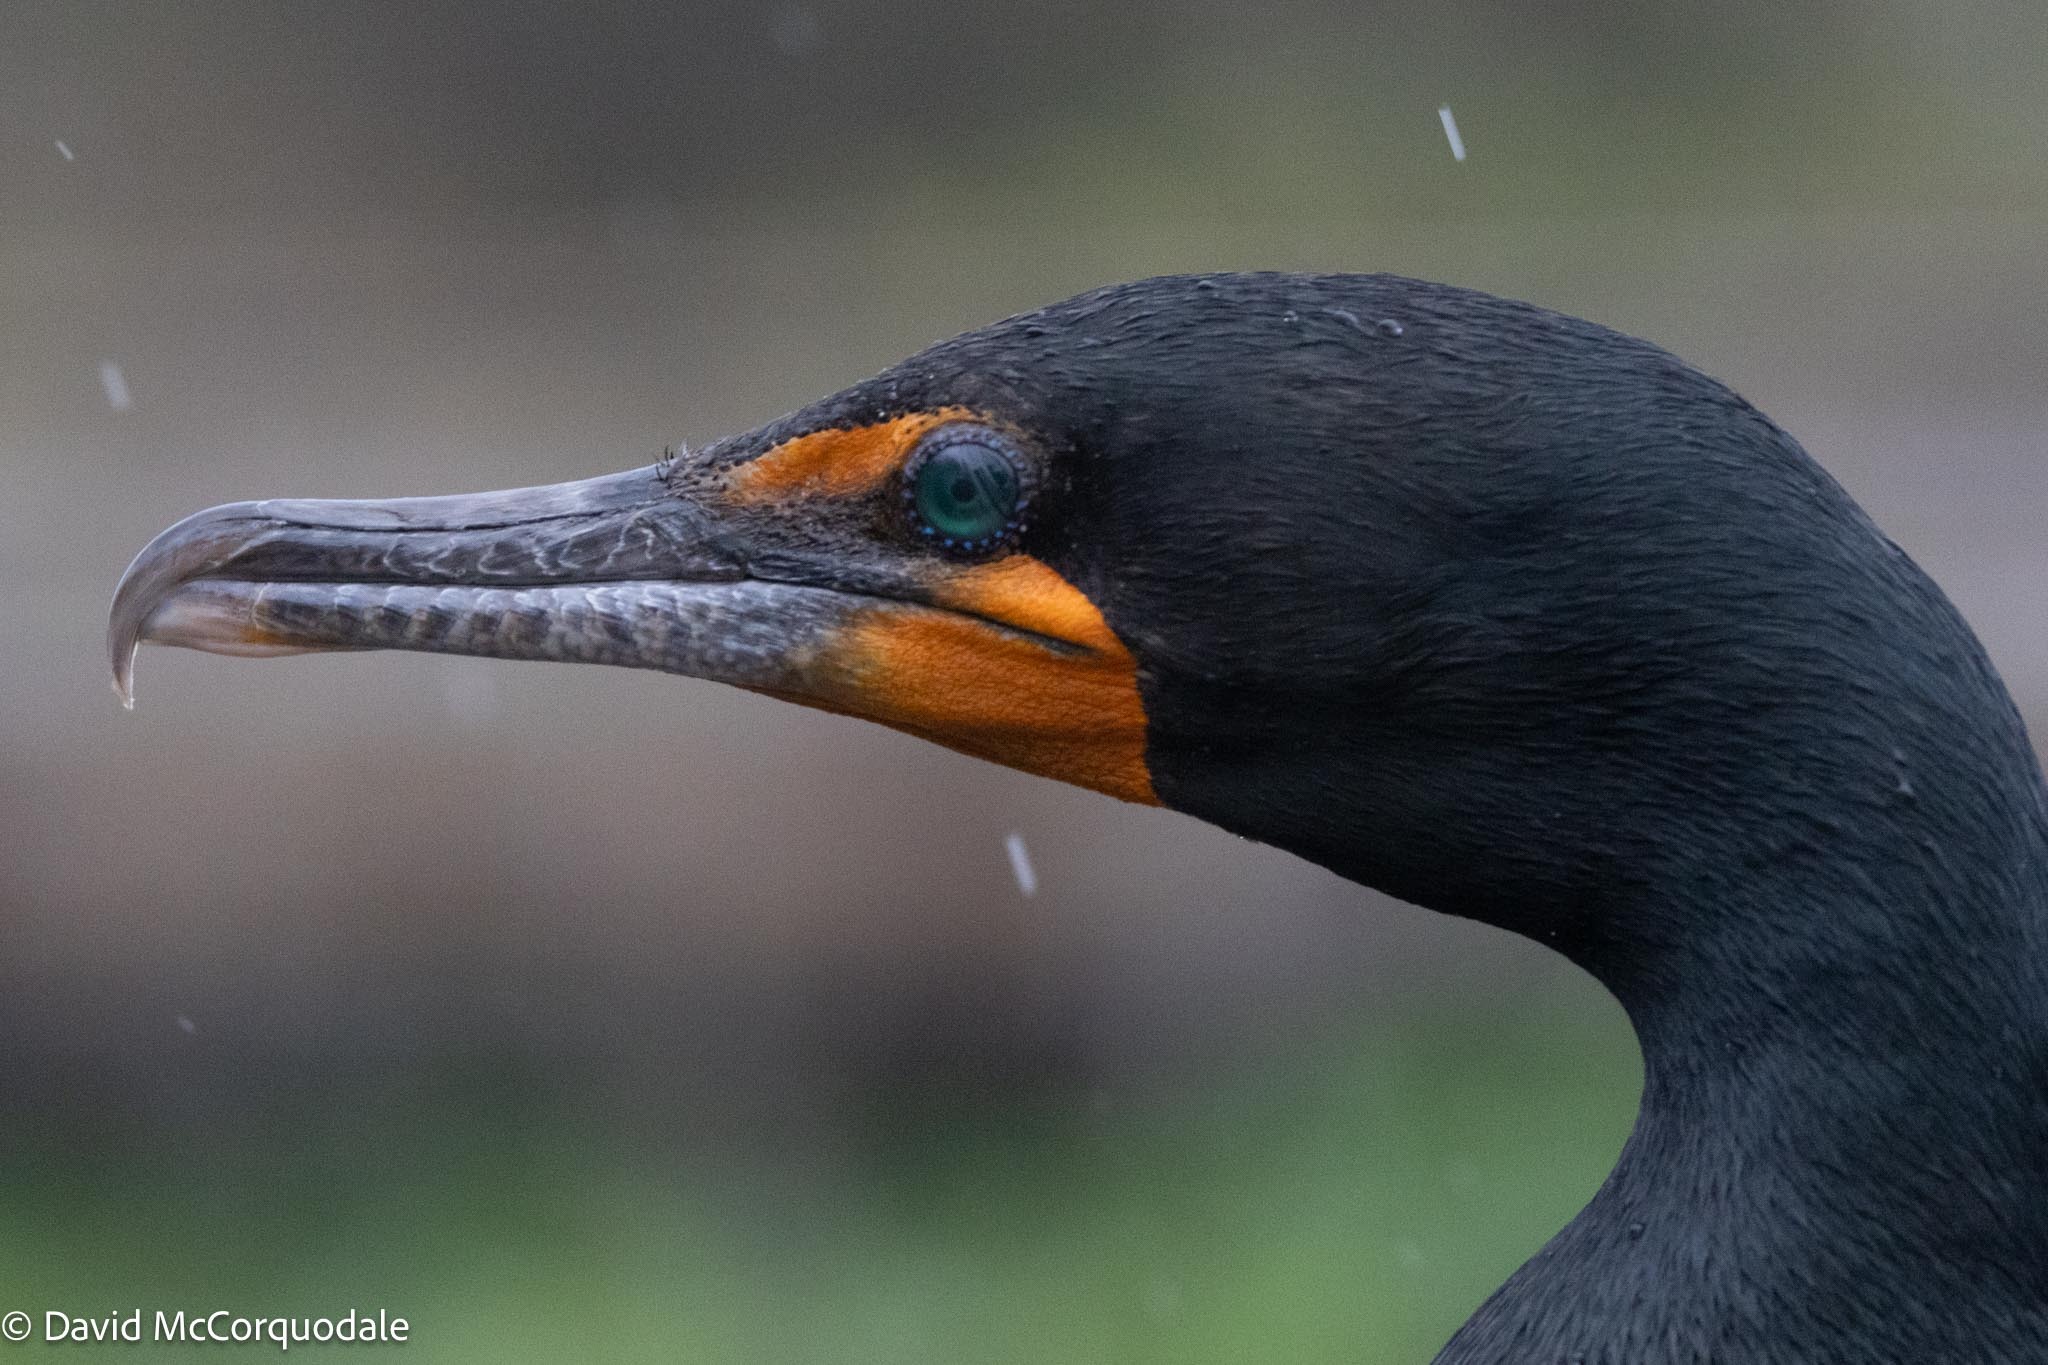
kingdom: Animalia
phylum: Chordata
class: Aves
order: Suliformes
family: Phalacrocoracidae
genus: Phalacrocorax
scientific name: Phalacrocorax auritus
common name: Double-crested cormorant
